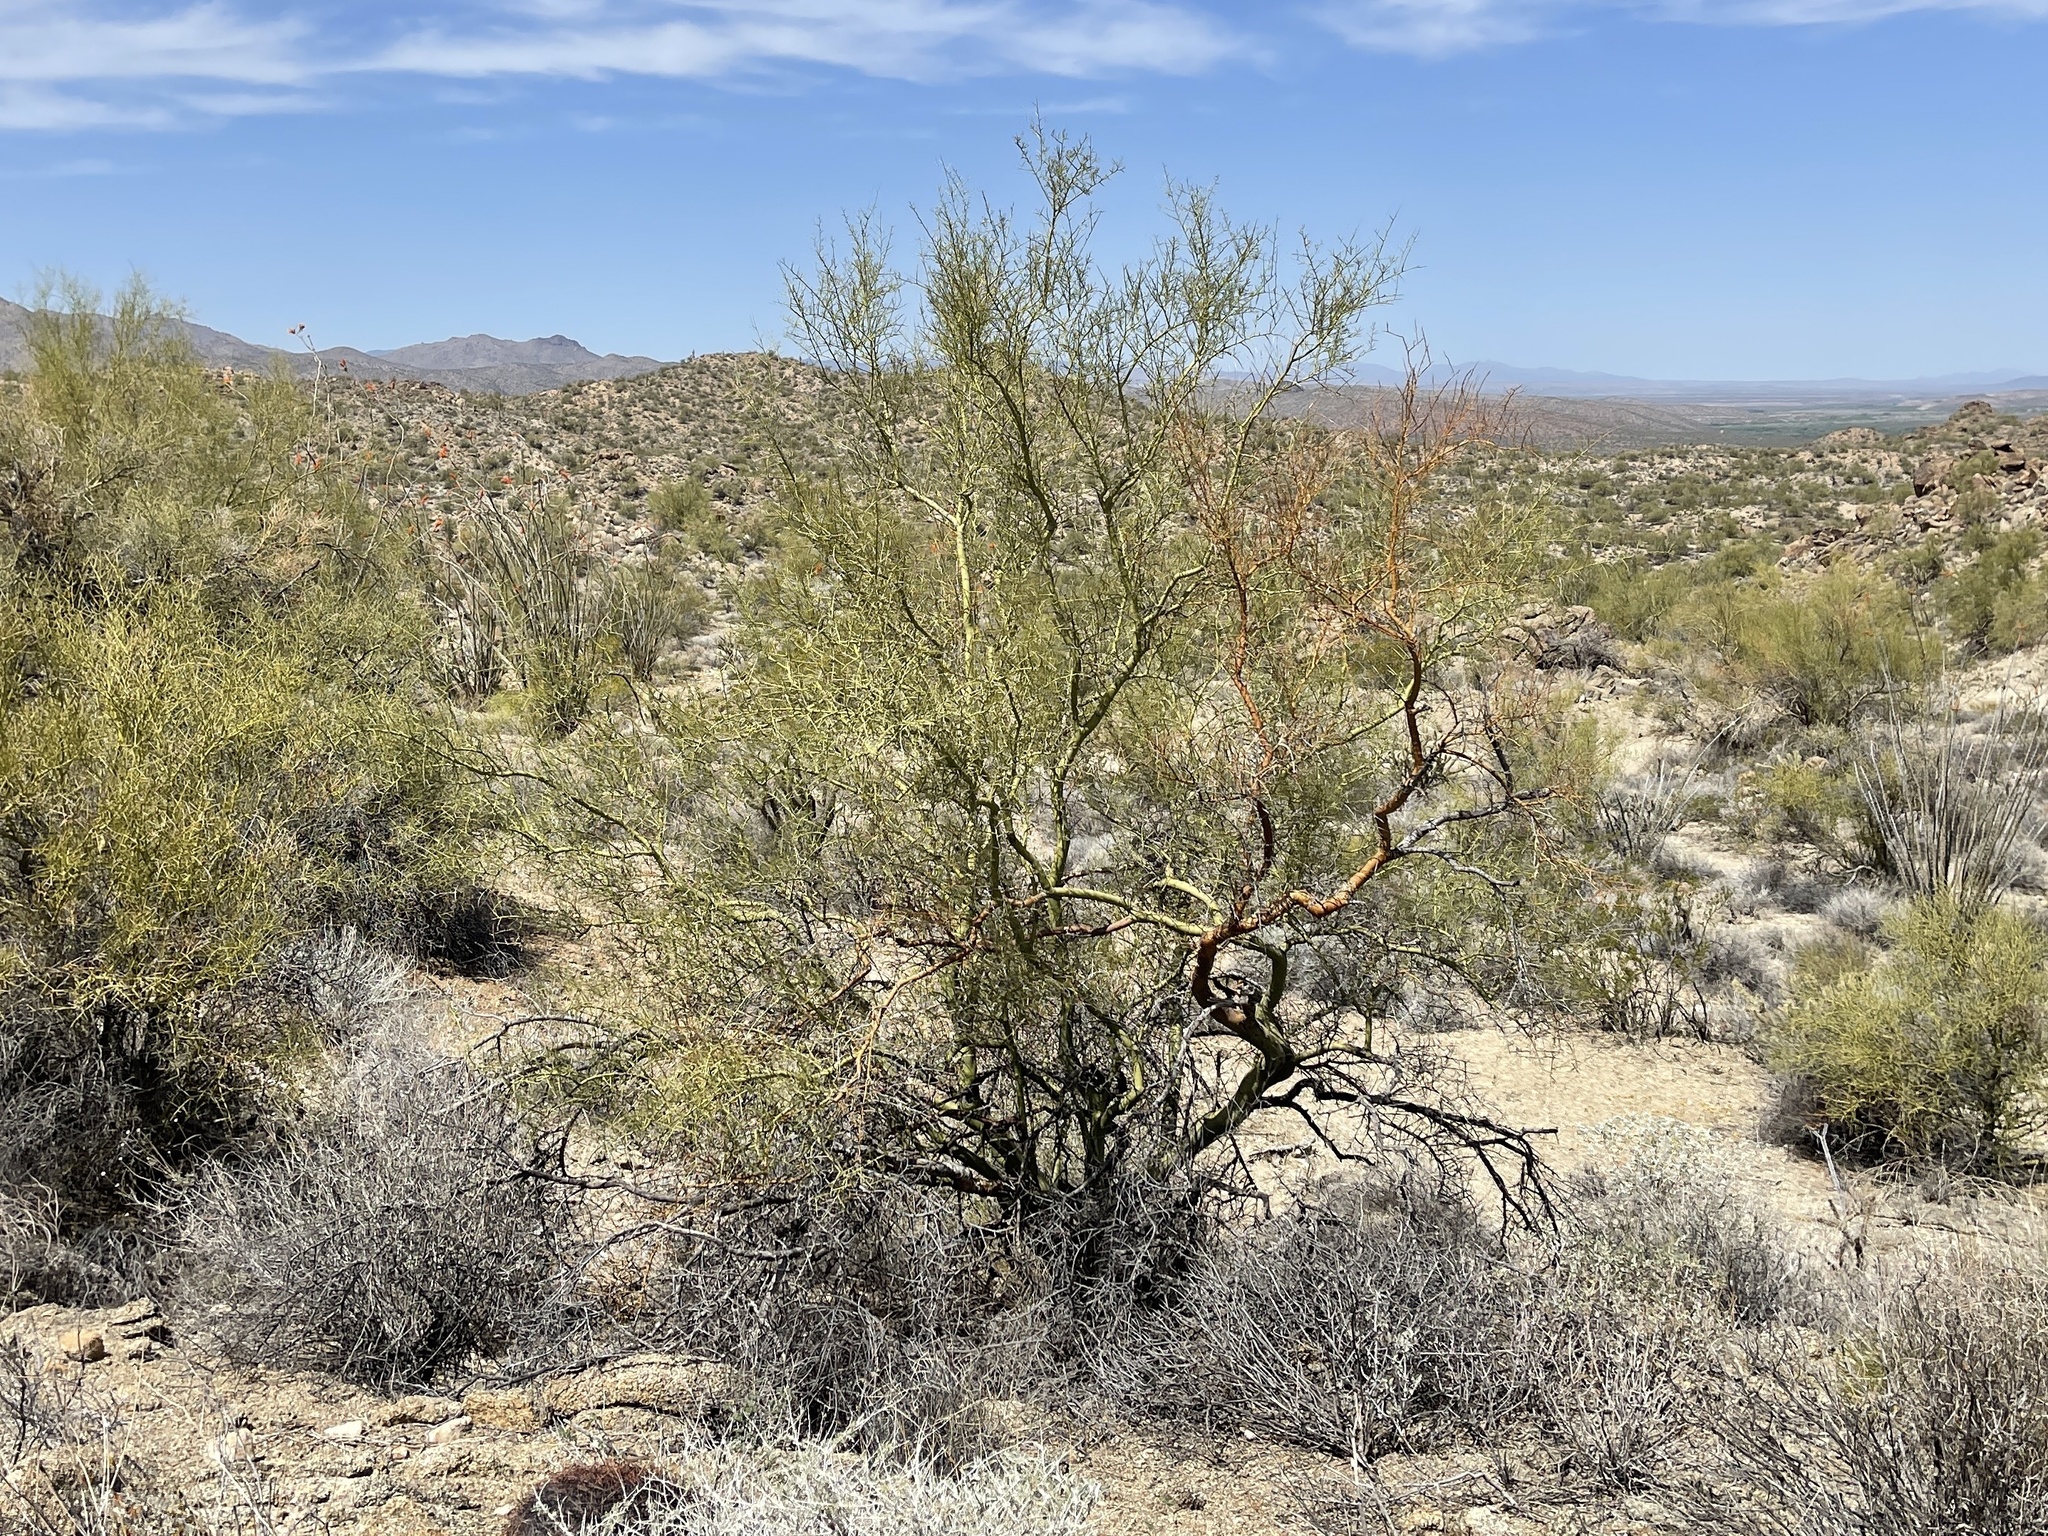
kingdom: Plantae
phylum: Tracheophyta
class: Magnoliopsida
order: Fabales
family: Fabaceae
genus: Parkinsonia
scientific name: Parkinsonia microphylla
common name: Yellow paloverde
